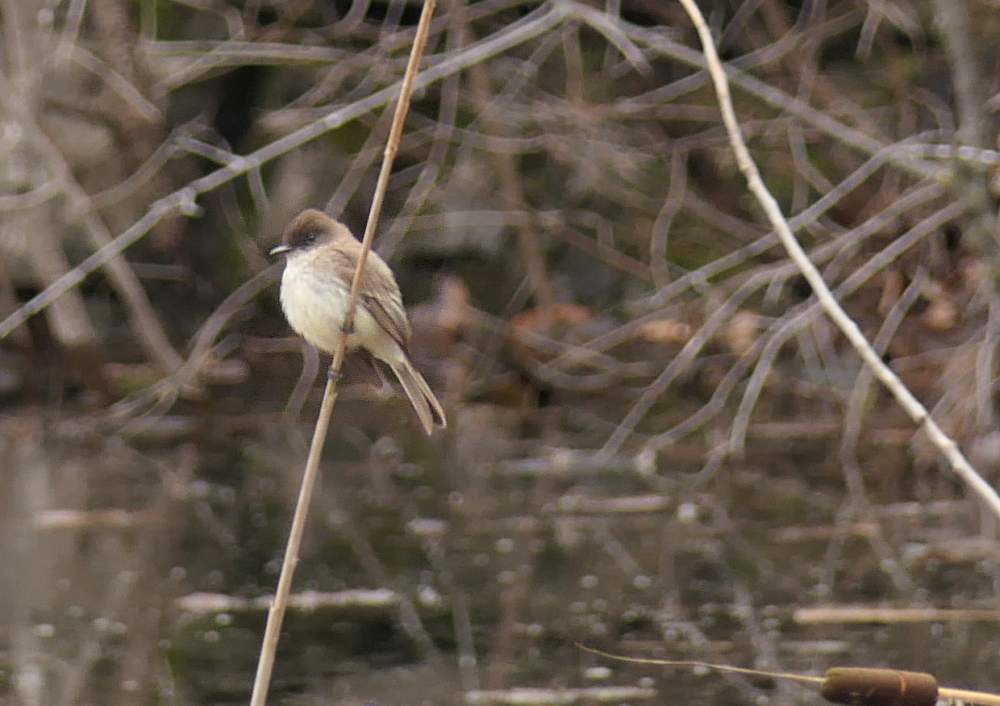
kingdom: Animalia
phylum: Chordata
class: Aves
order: Passeriformes
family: Tyrannidae
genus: Sayornis
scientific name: Sayornis phoebe
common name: Eastern phoebe
